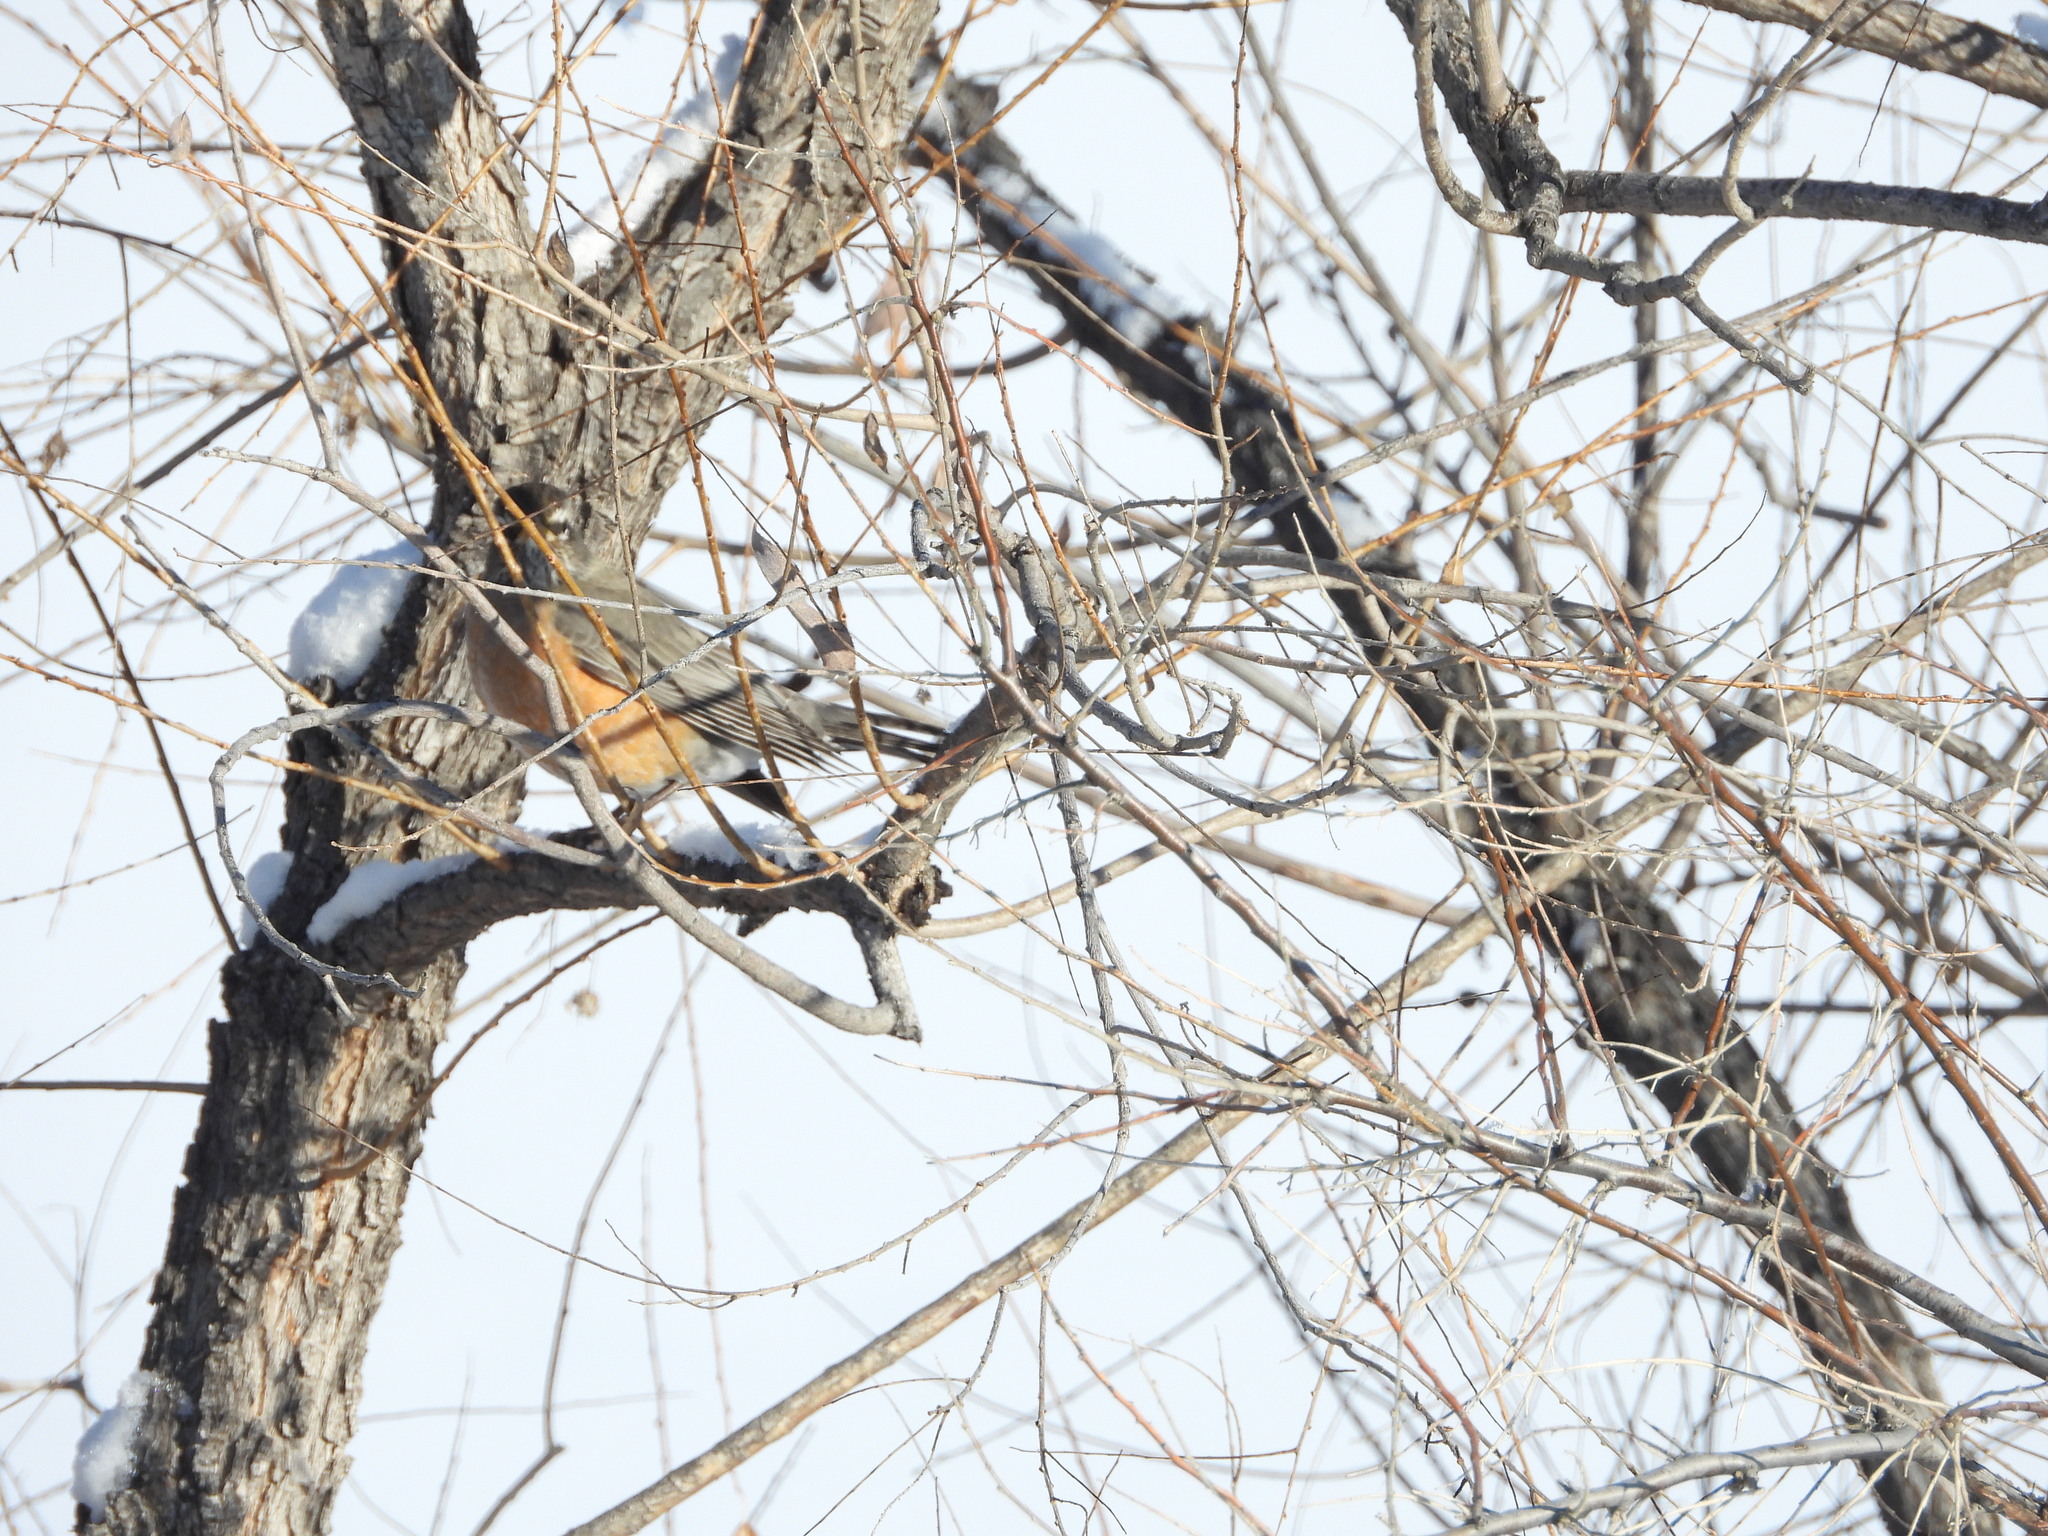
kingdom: Animalia
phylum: Chordata
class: Aves
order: Passeriformes
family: Turdidae
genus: Turdus
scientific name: Turdus migratorius
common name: American robin
